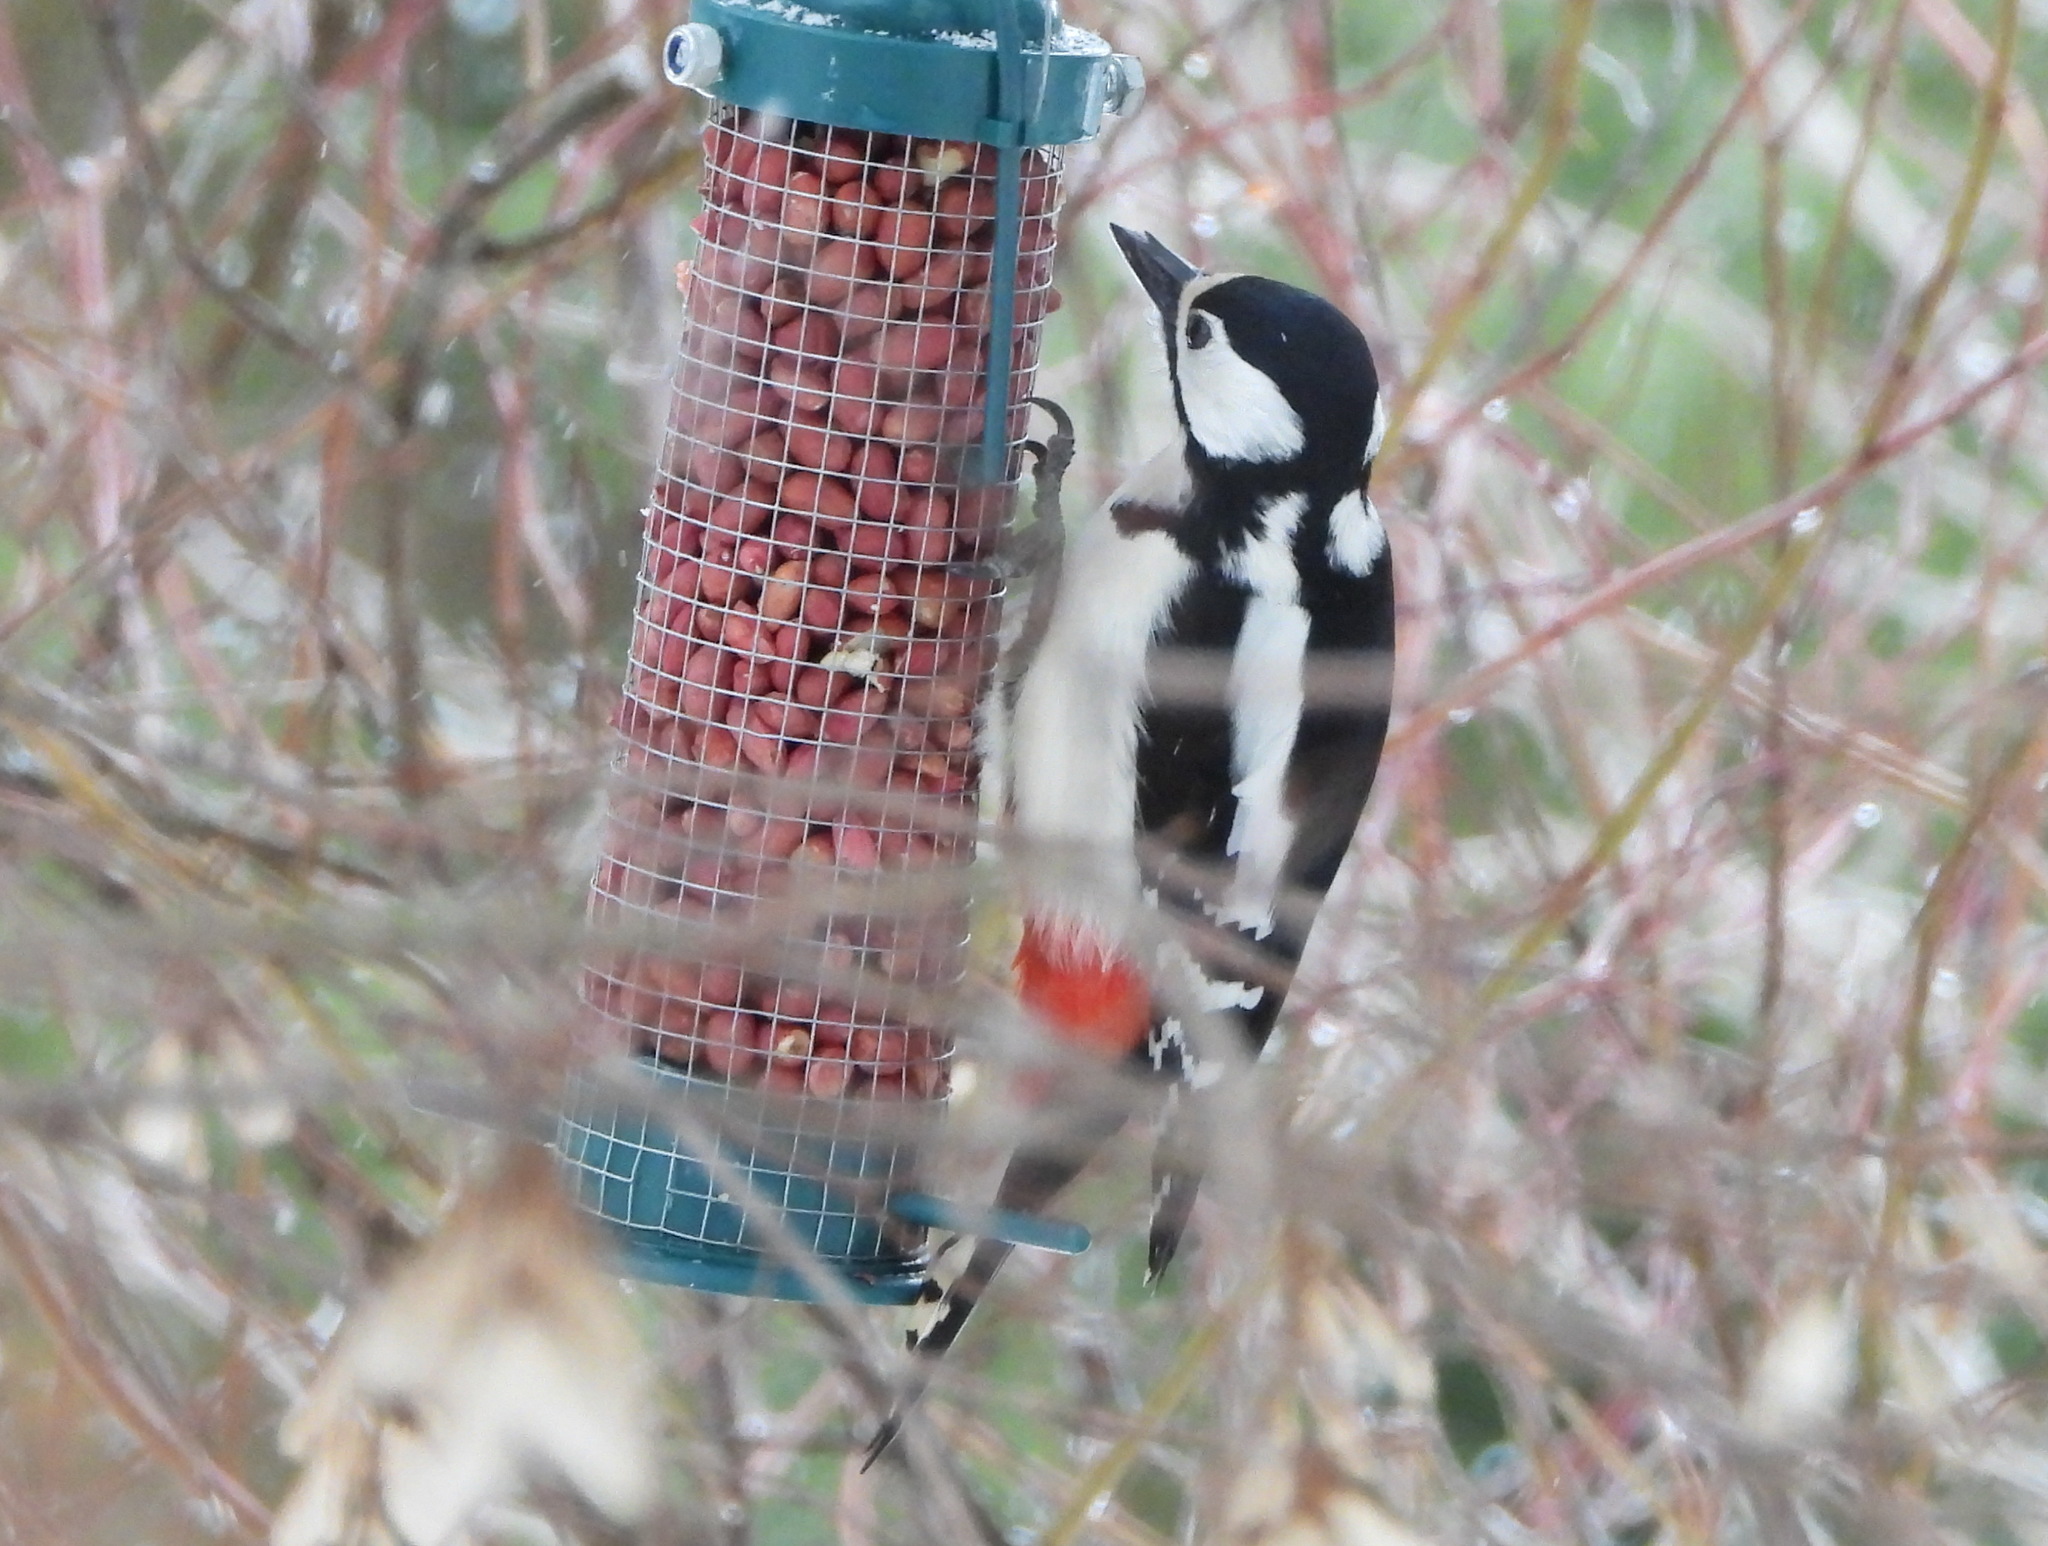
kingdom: Animalia
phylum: Chordata
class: Aves
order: Piciformes
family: Picidae
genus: Dendrocopos
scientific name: Dendrocopos major
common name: Great spotted woodpecker
